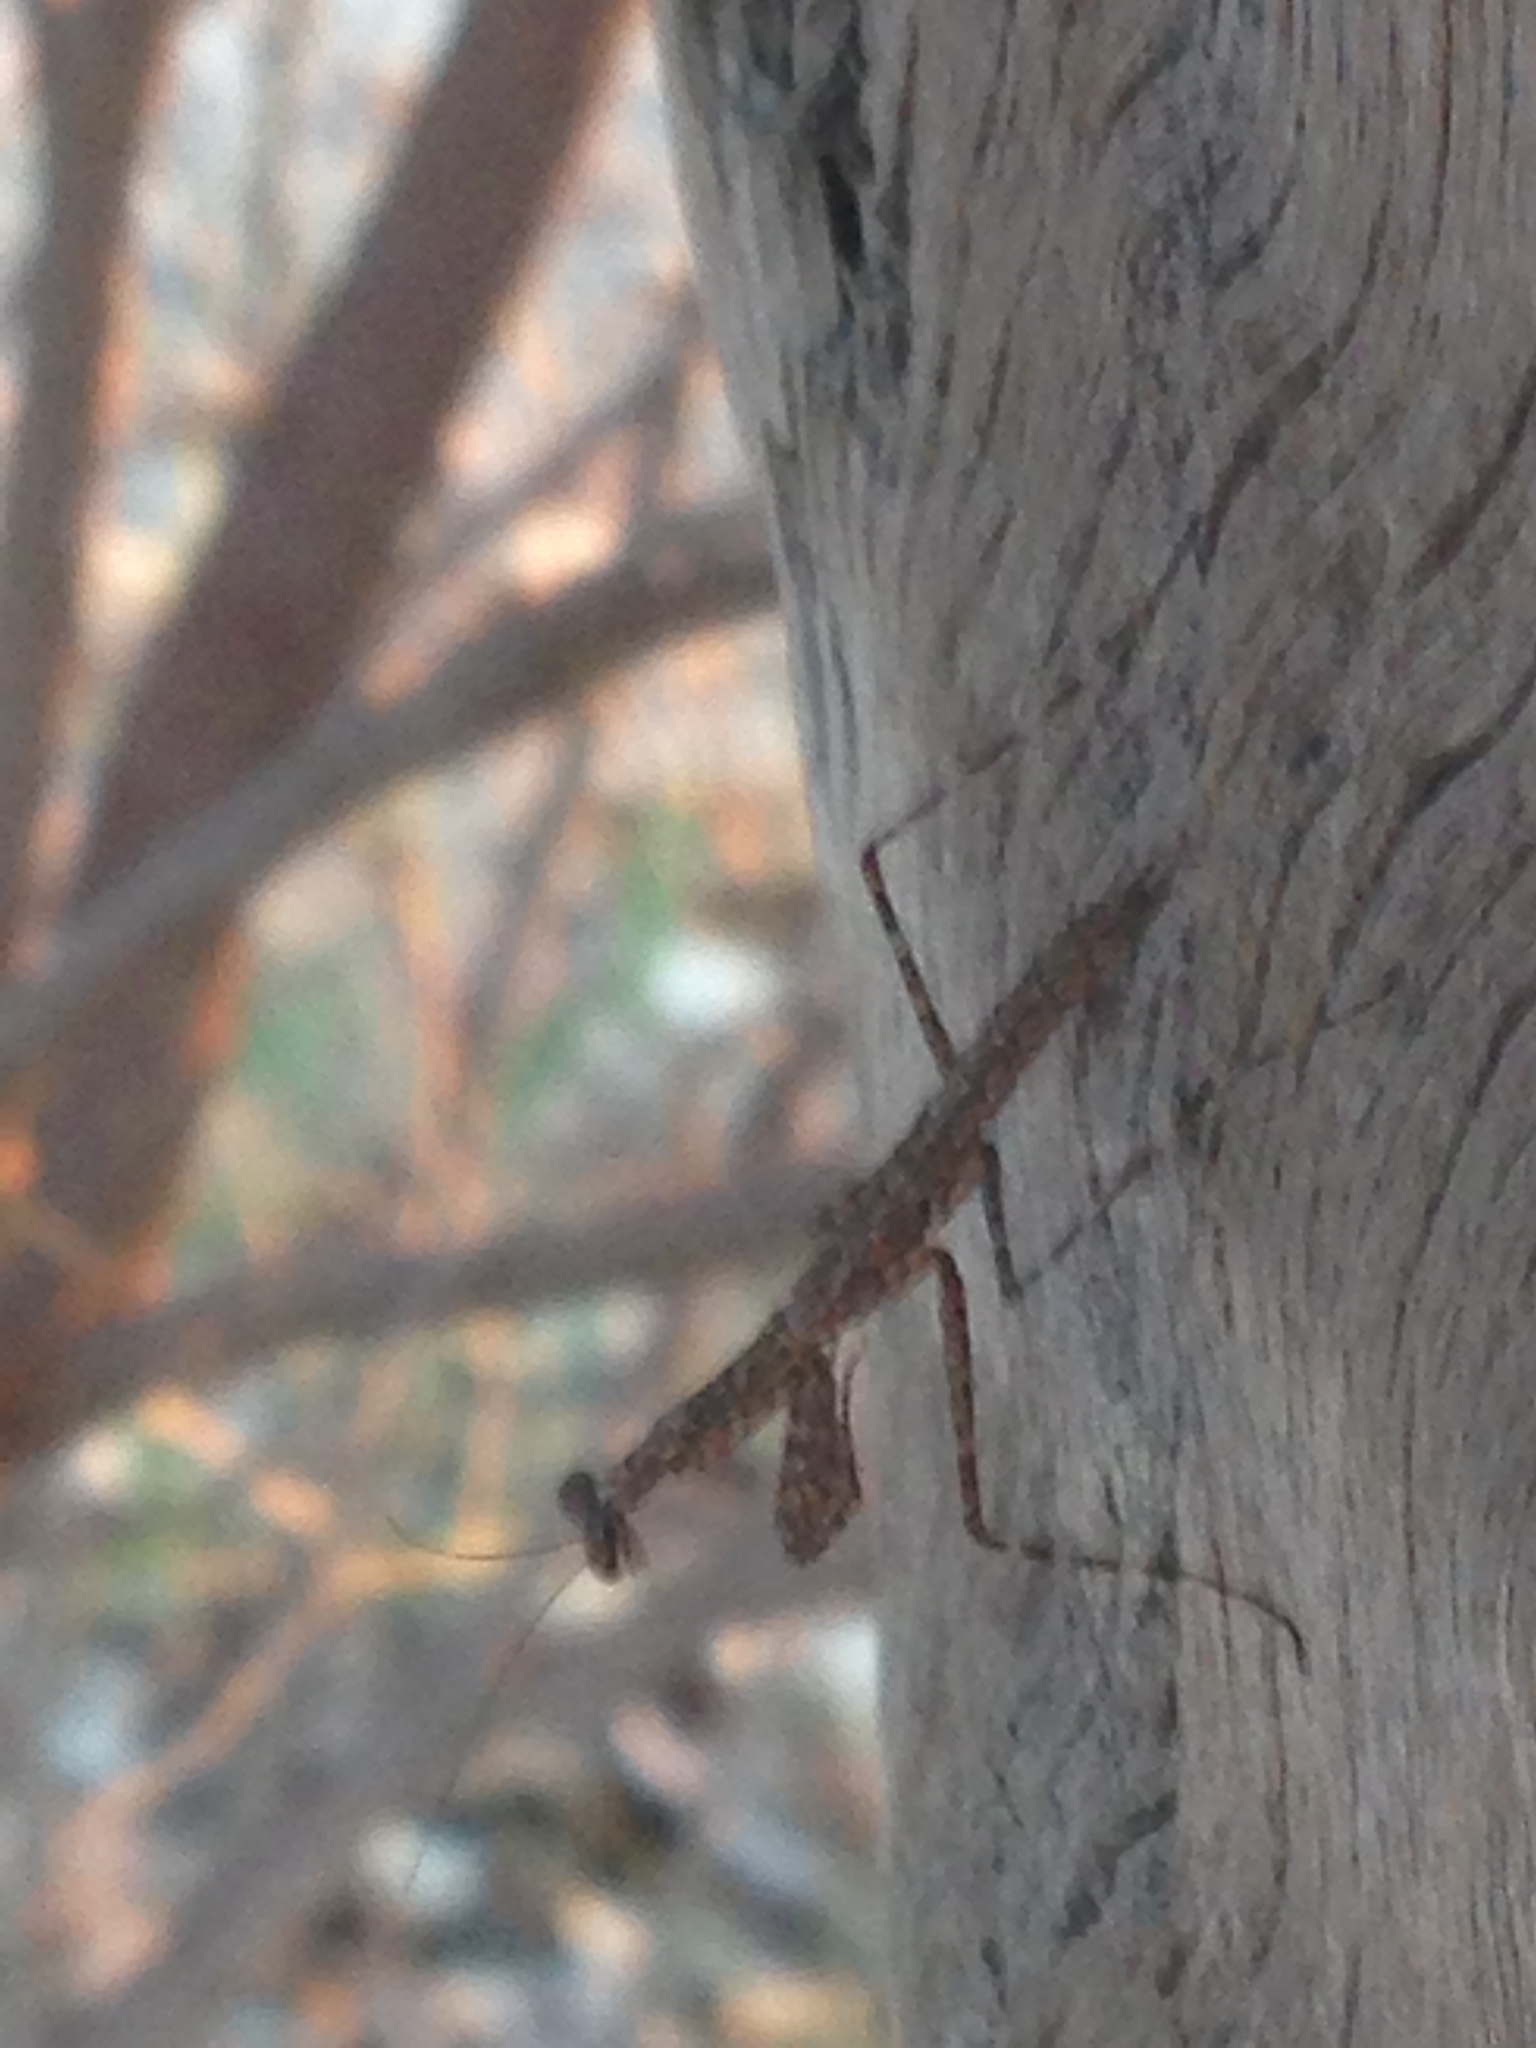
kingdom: Animalia
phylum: Arthropoda
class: Insecta
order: Mantodea
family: Nanomantidae
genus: Ciulfina
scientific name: Ciulfina baldersoni
